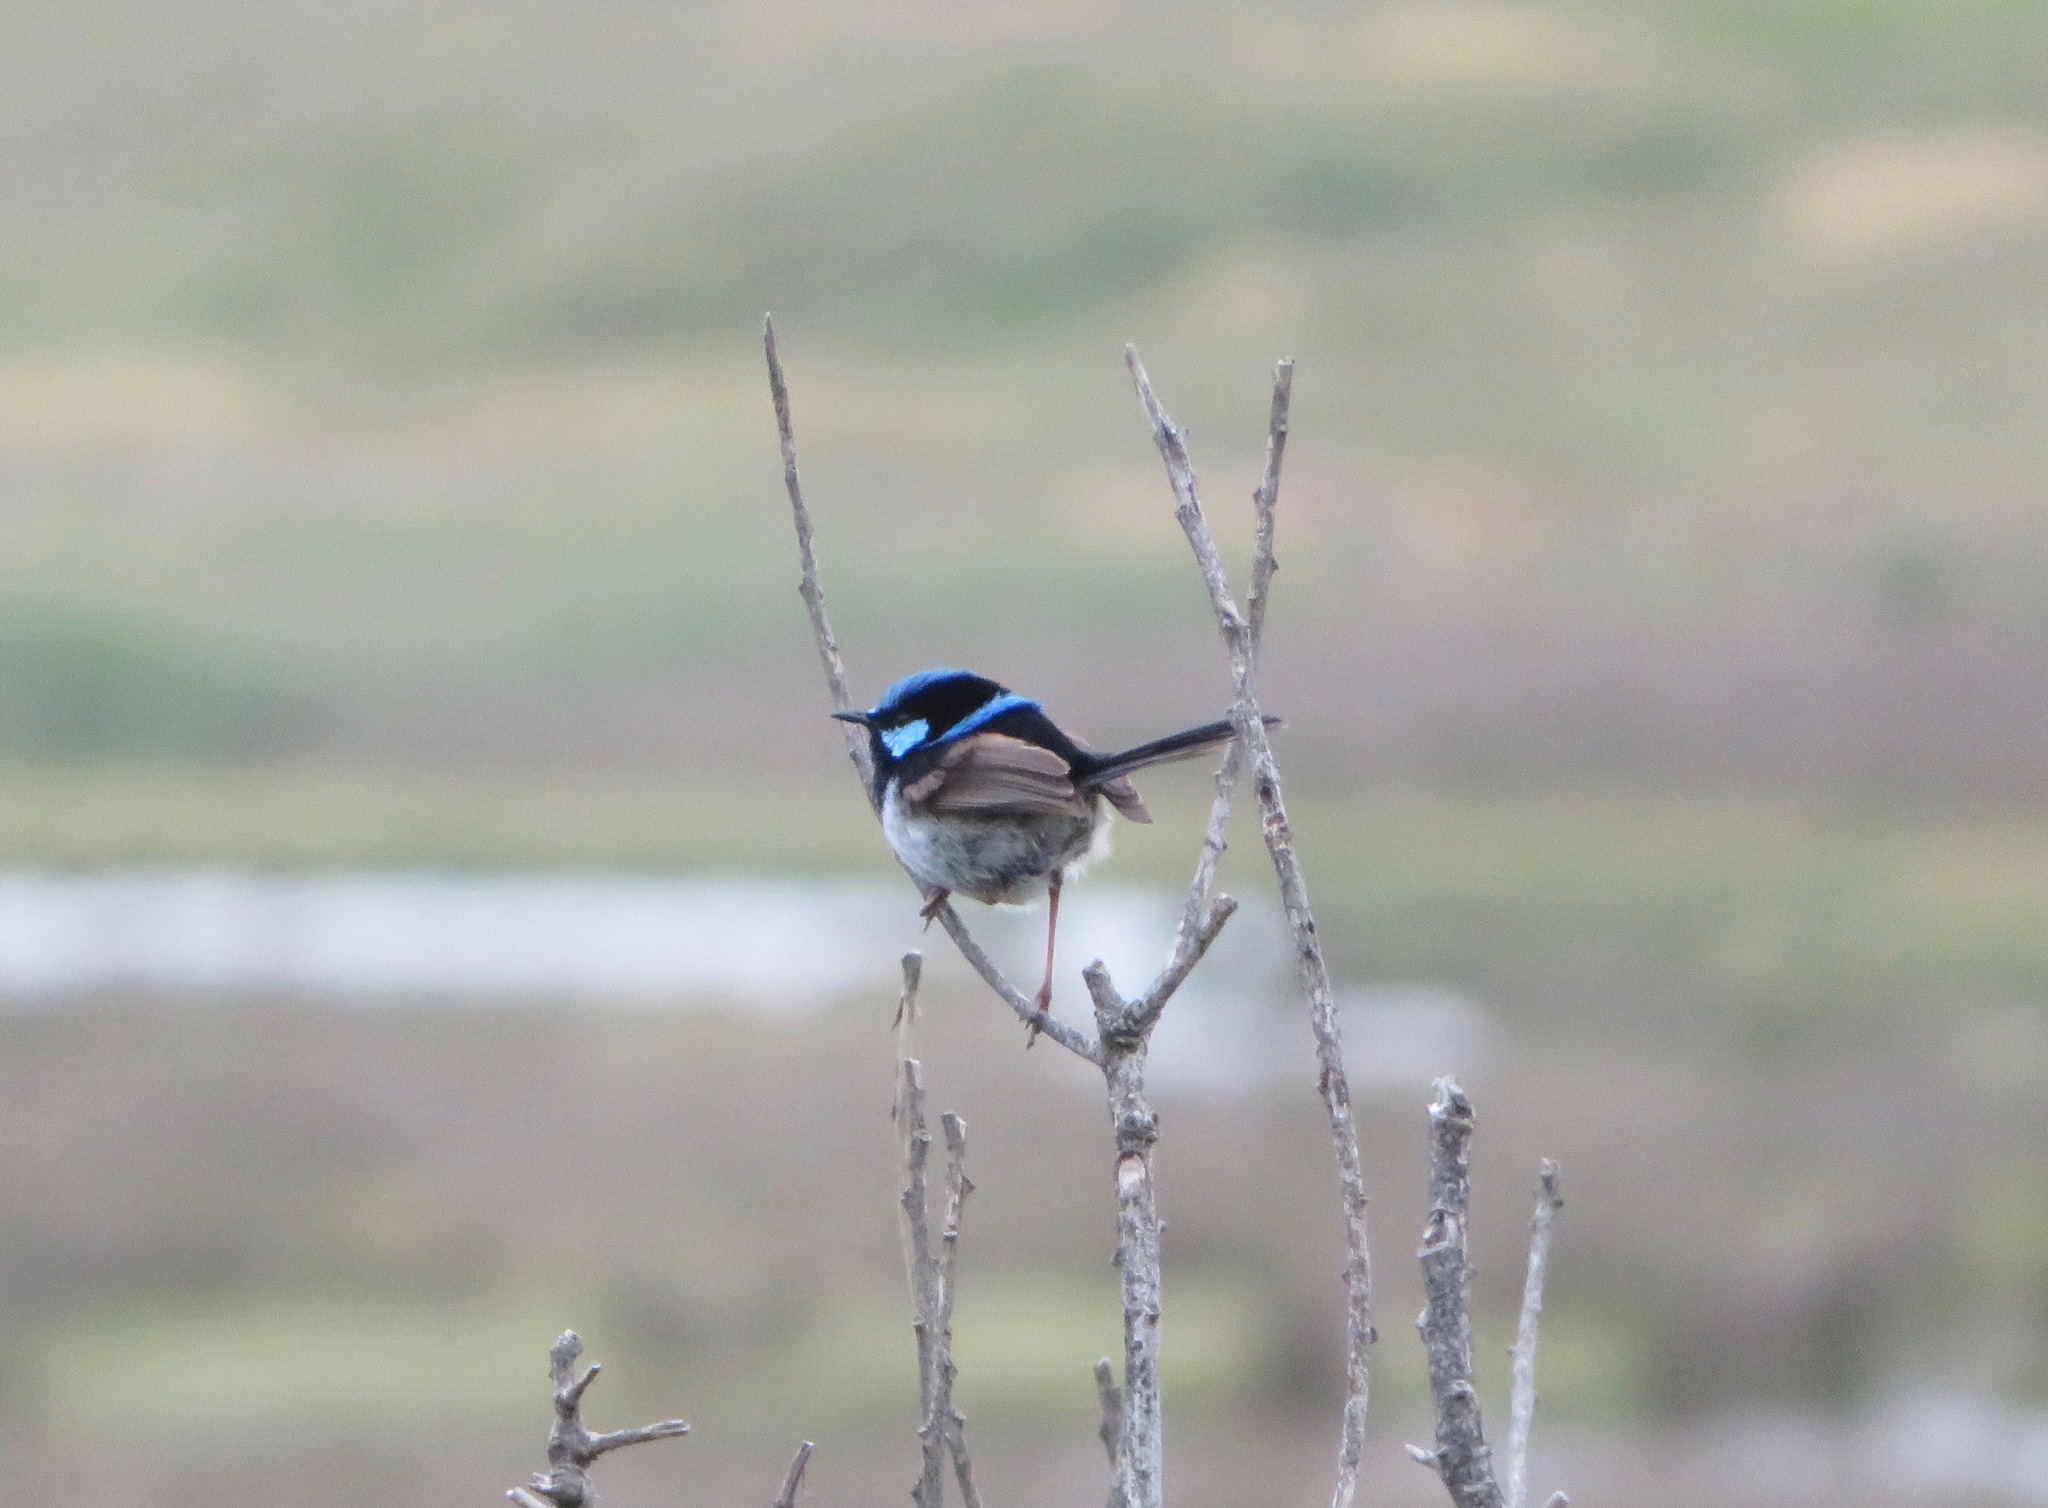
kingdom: Animalia
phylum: Chordata
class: Aves
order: Passeriformes
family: Maluridae
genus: Malurus
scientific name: Malurus cyaneus
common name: Superb fairywren
